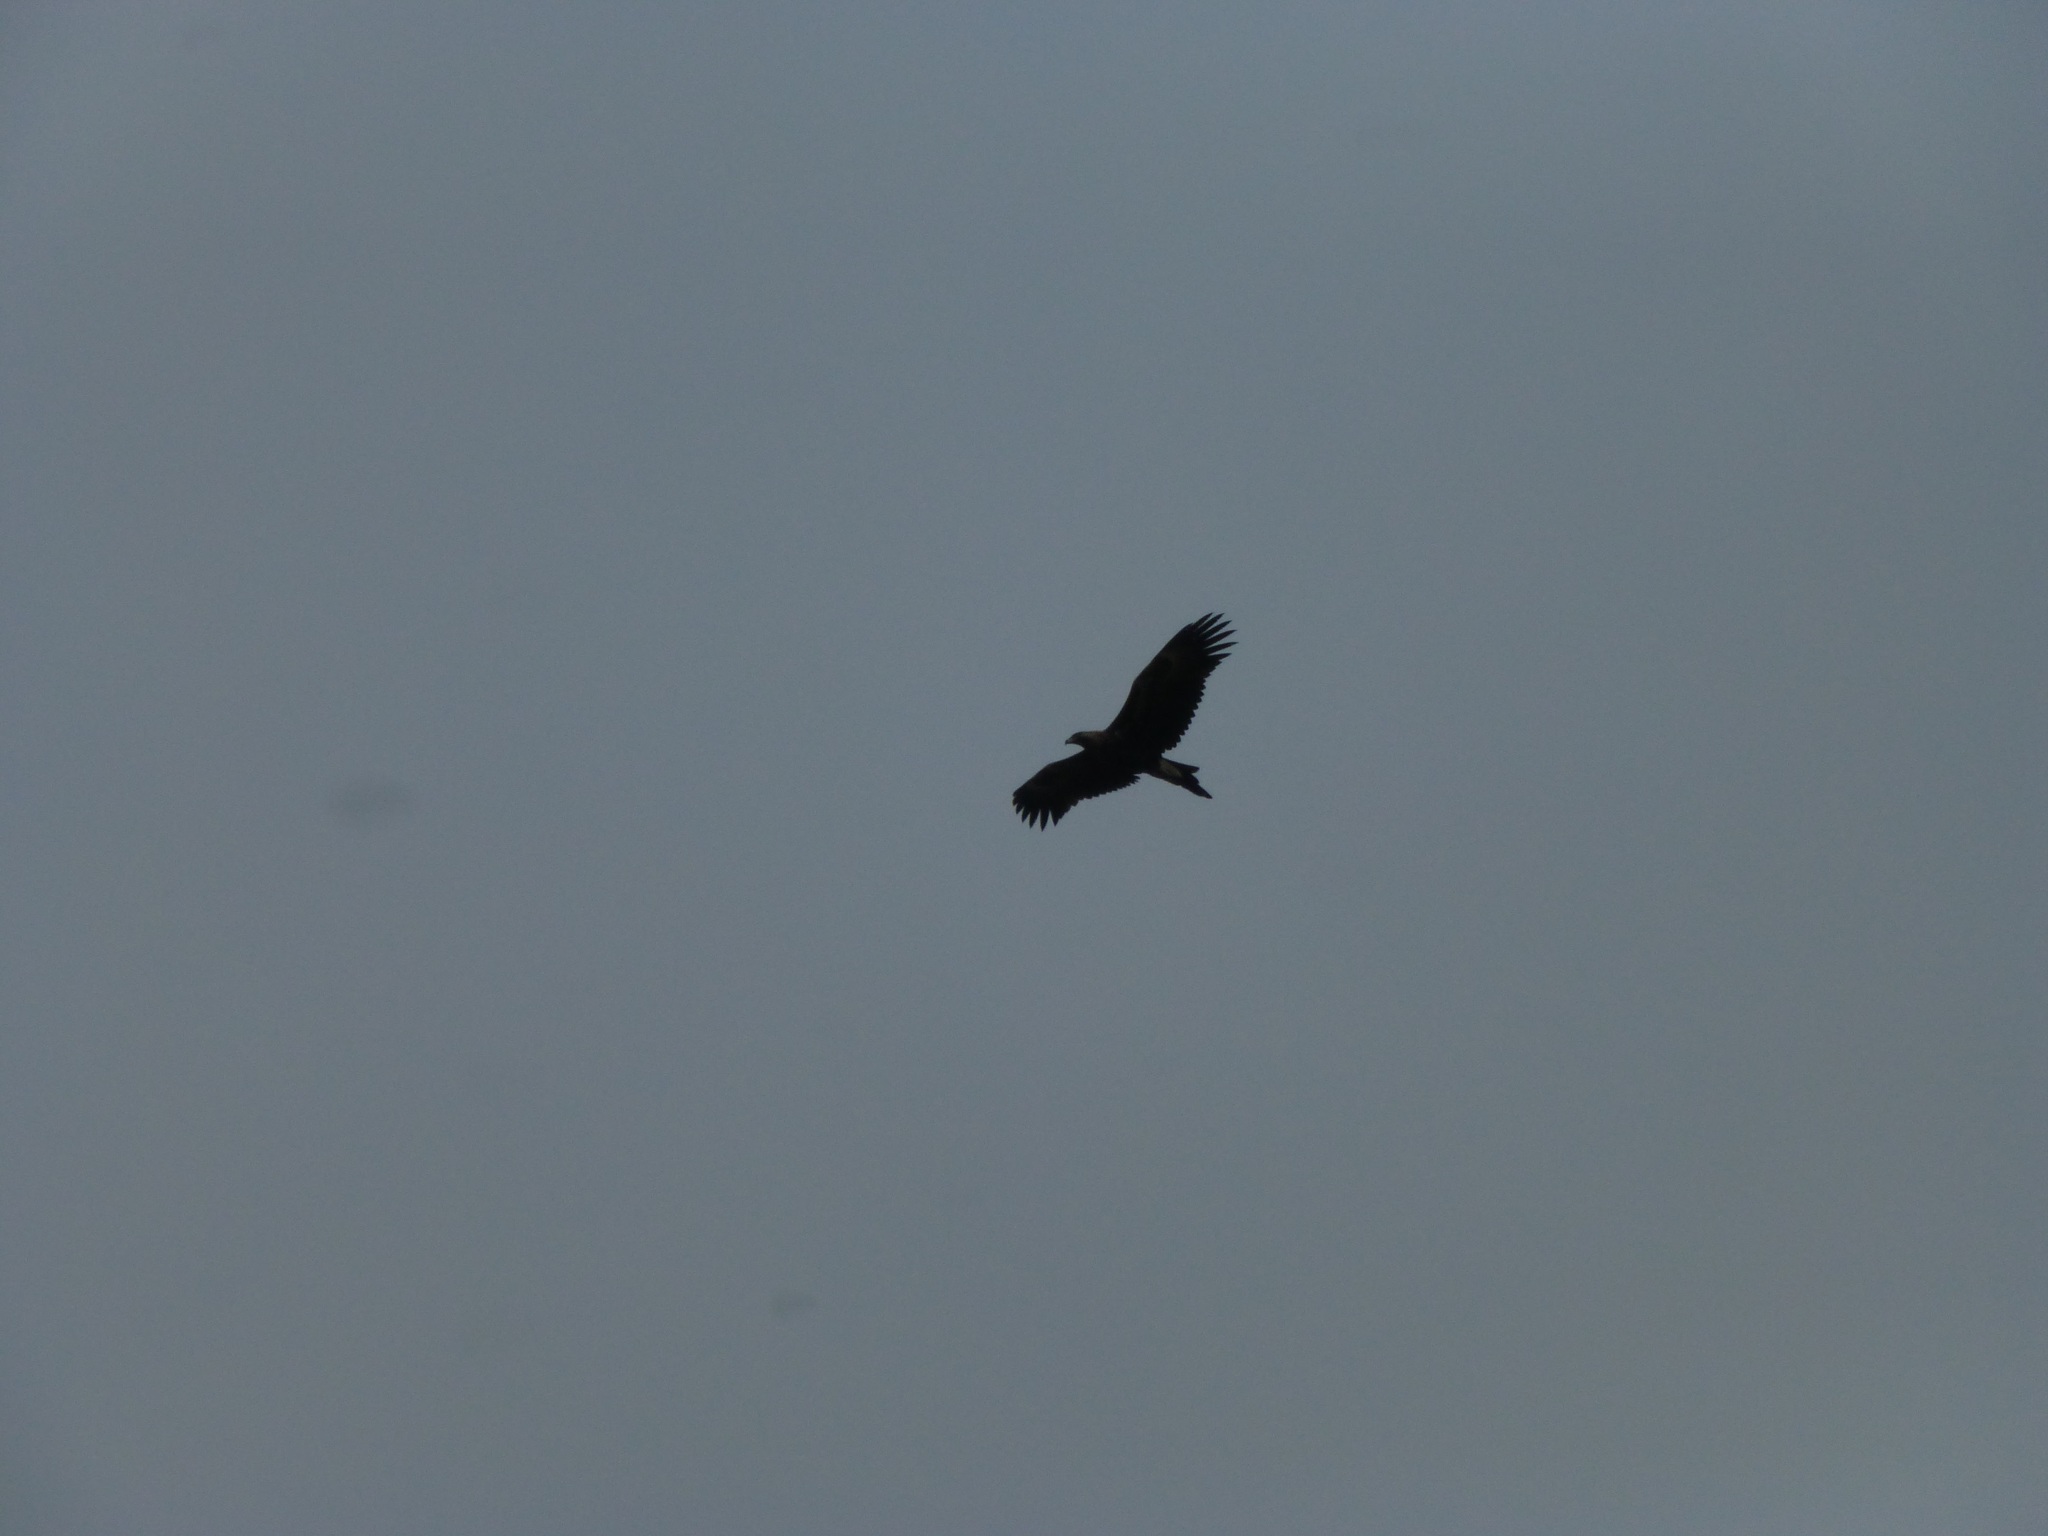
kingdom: Animalia
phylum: Chordata
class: Aves
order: Accipitriformes
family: Accipitridae
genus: Aquila
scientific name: Aquila audax
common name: Wedge-tailed eagle
